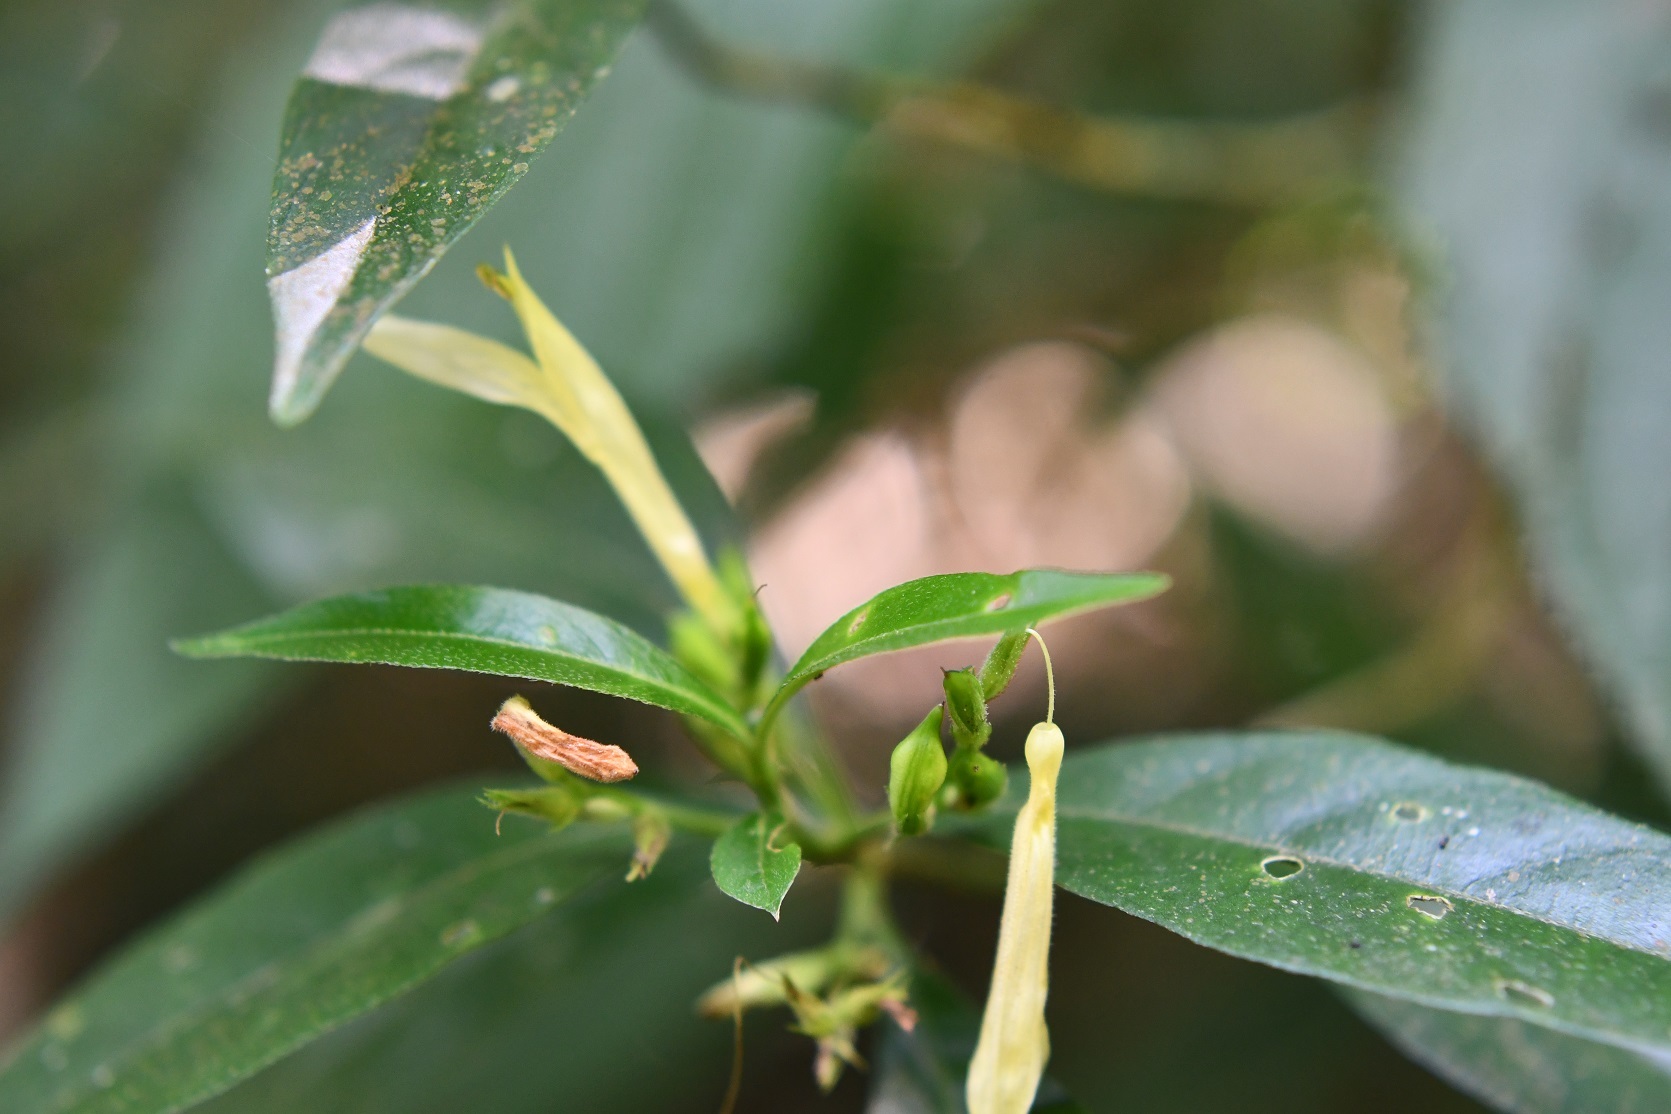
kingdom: Plantae
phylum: Tracheophyta
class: Magnoliopsida
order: Lamiales
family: Acanthaceae
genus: Justicia
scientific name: Justicia eburnea
